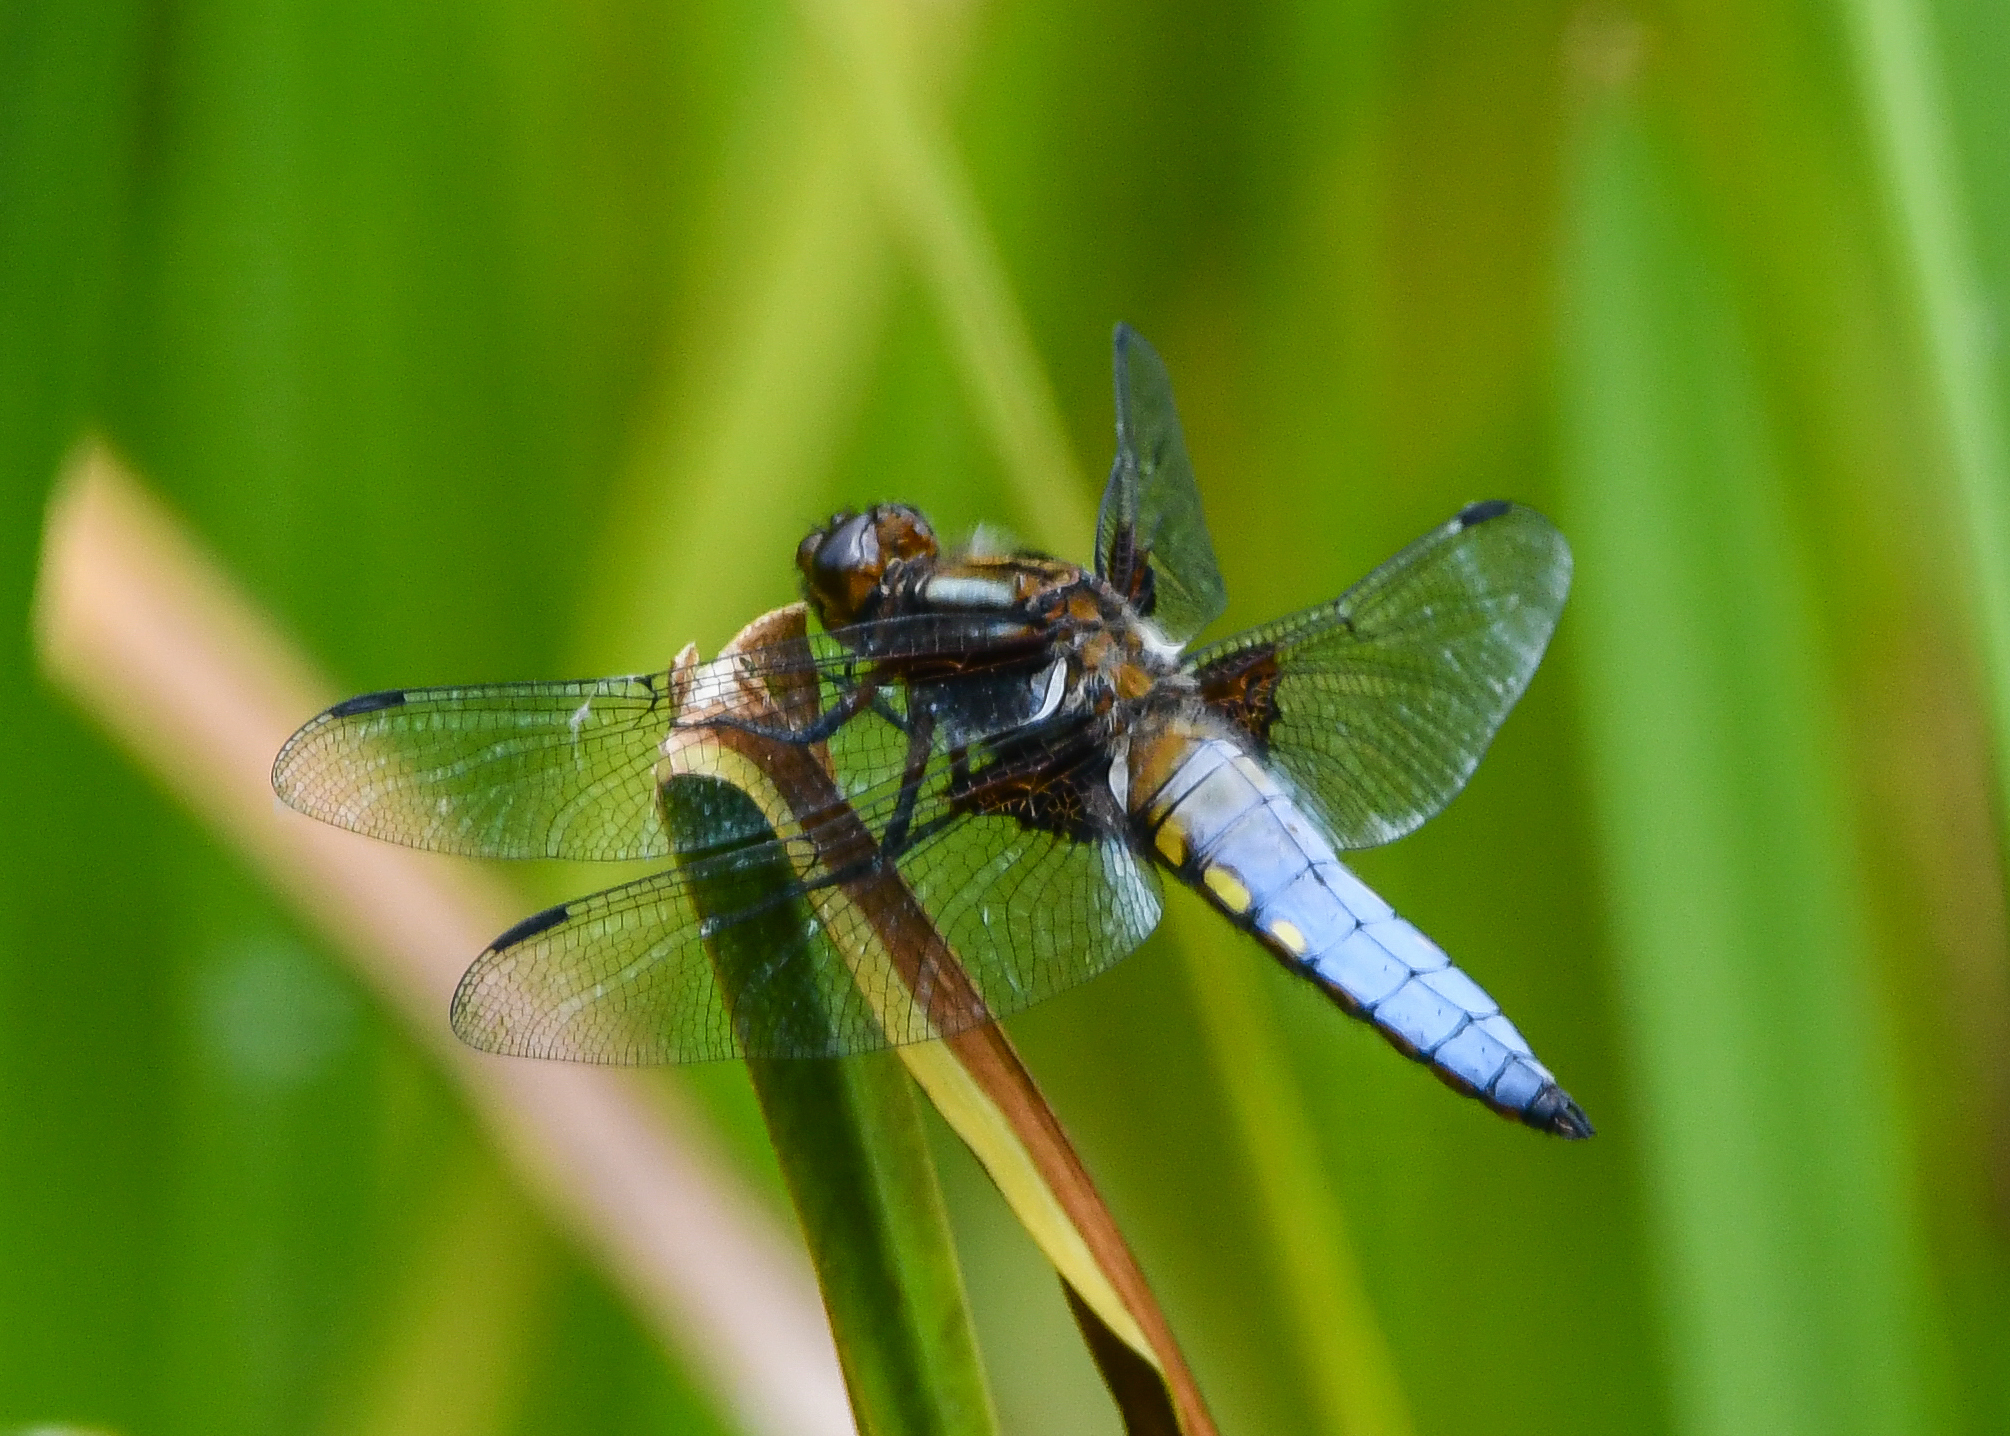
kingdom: Animalia
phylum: Arthropoda
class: Insecta
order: Odonata
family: Libellulidae
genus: Libellula
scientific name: Libellula depressa
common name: Broad-bodied chaser
